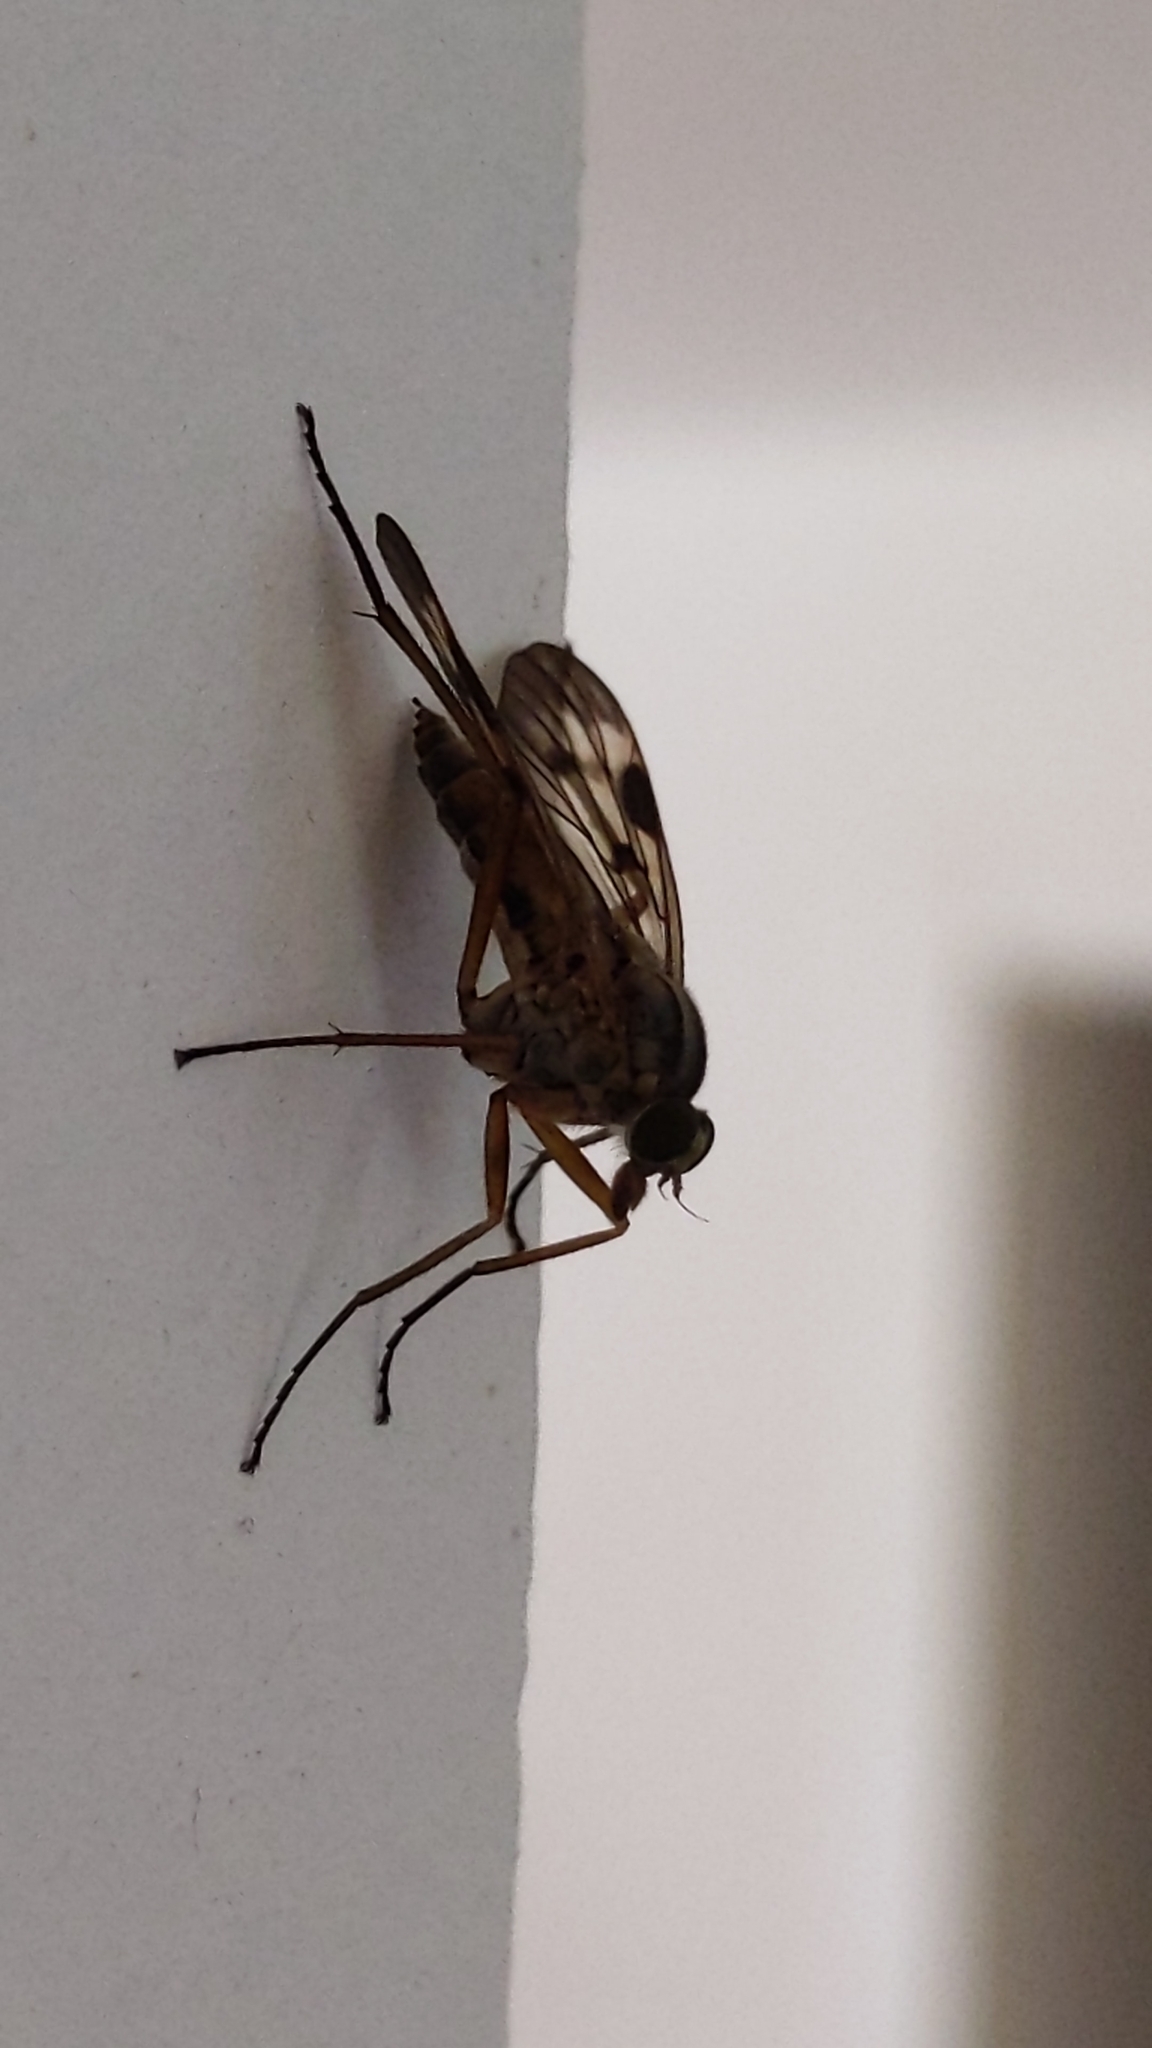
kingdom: Animalia
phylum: Arthropoda
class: Insecta
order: Diptera
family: Rhagionidae
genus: Rhagio
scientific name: Rhagio scolopacea
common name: Downlooker snipefly
